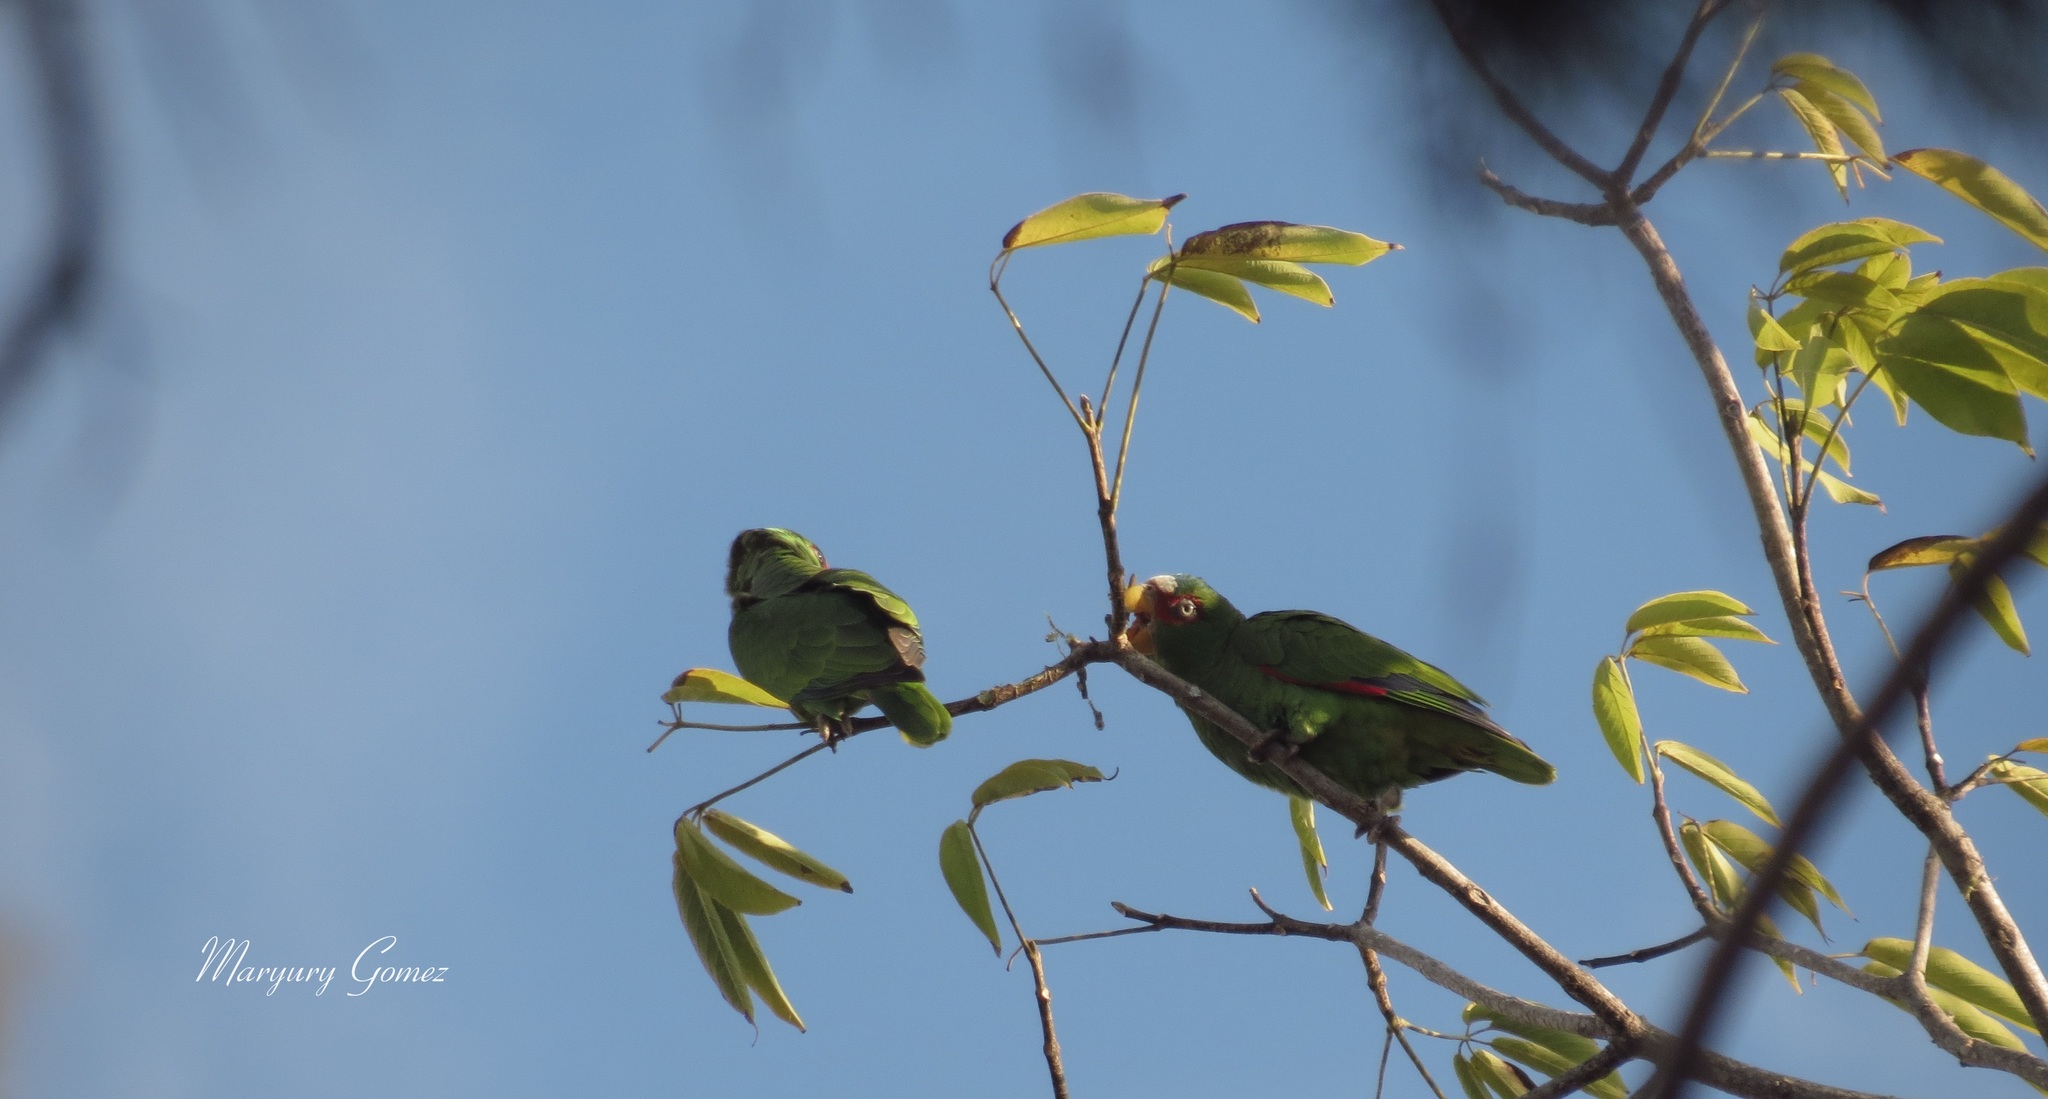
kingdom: Animalia
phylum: Chordata
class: Aves
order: Psittaciformes
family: Psittacidae
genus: Amazona
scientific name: Amazona albifrons
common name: White-fronted amazon
